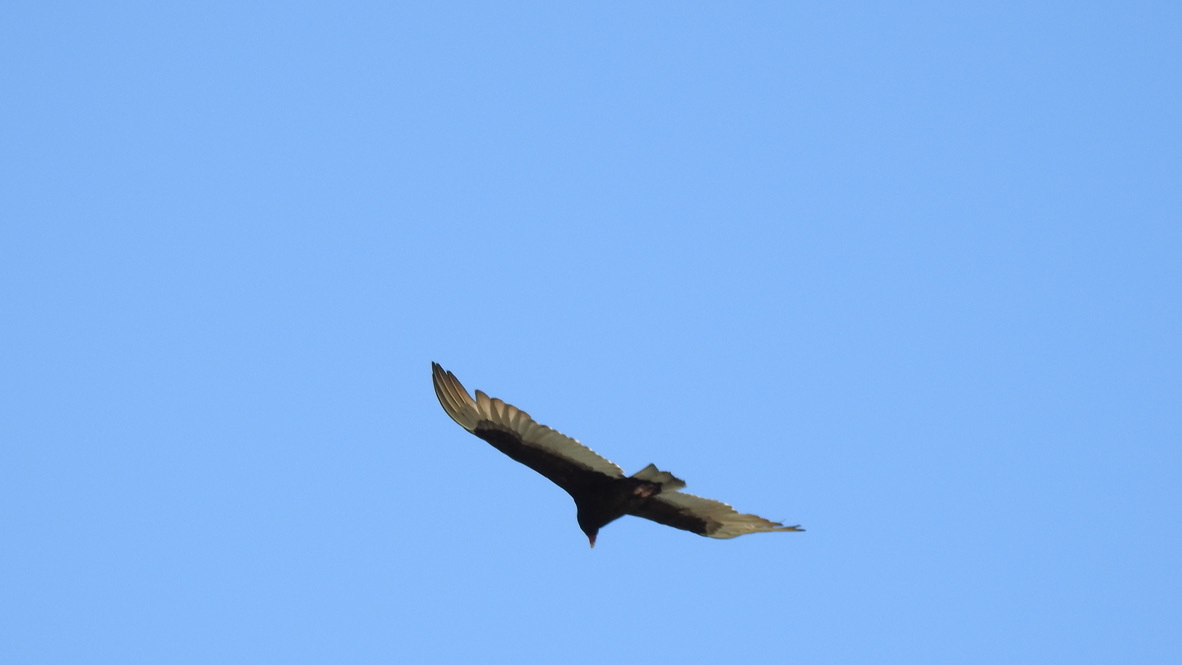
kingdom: Animalia
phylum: Chordata
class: Aves
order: Accipitriformes
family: Cathartidae
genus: Cathartes
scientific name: Cathartes aura
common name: Turkey vulture
